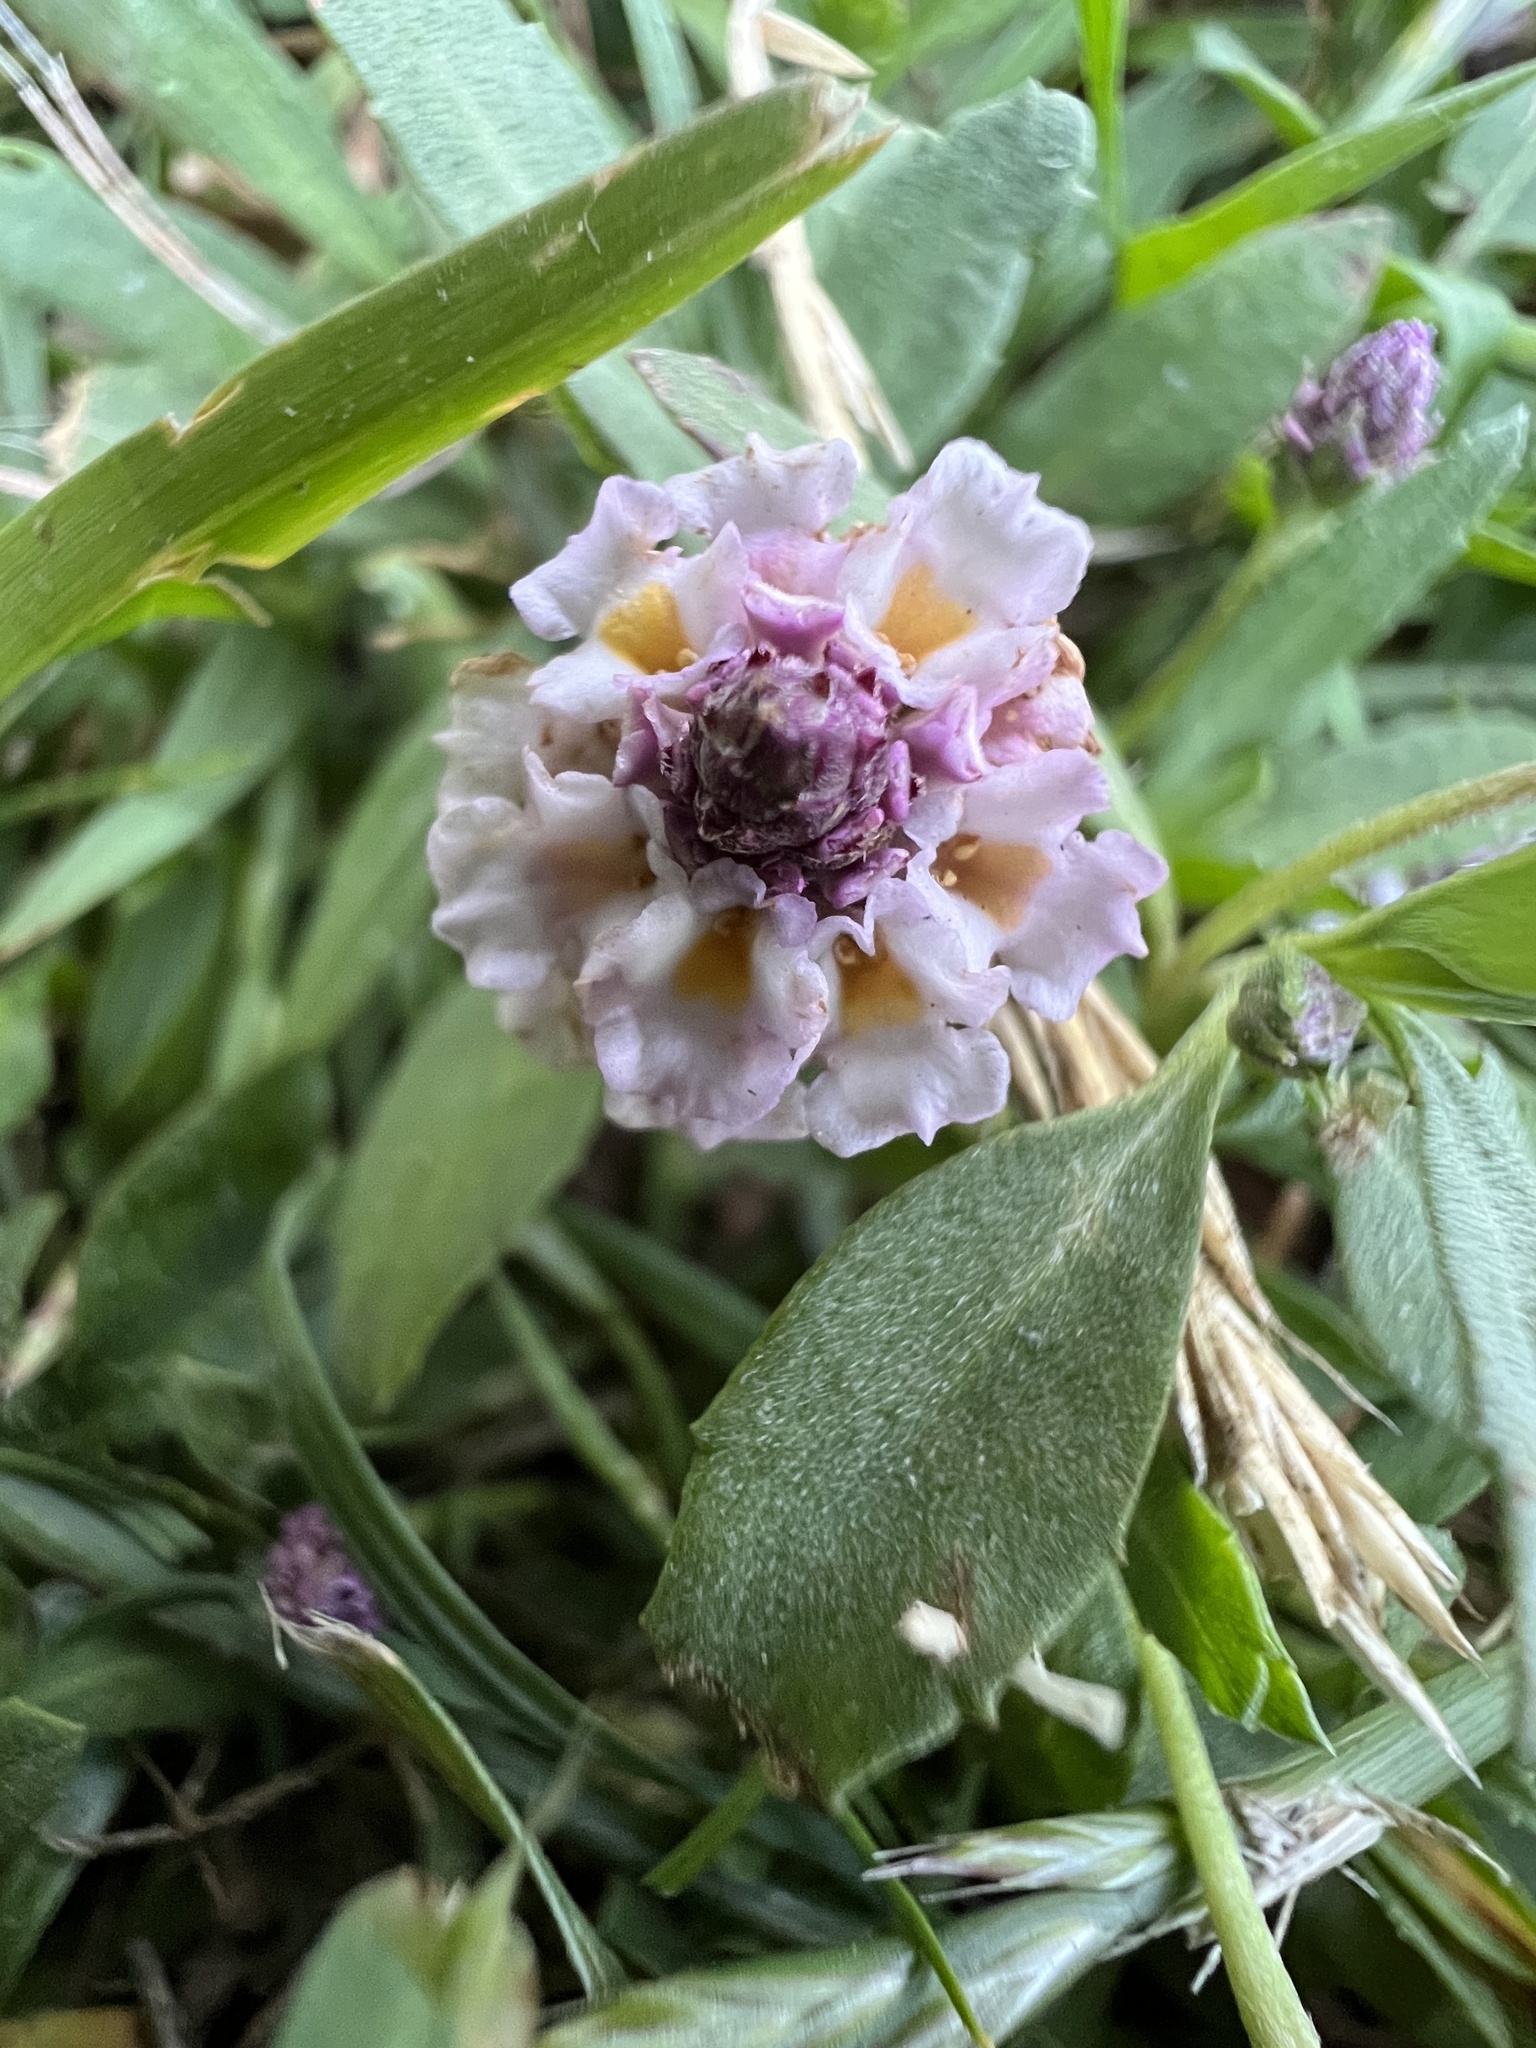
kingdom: Plantae
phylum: Tracheophyta
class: Magnoliopsida
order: Lamiales
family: Verbenaceae
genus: Phyla
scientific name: Phyla nodiflora
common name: Frogfruit
